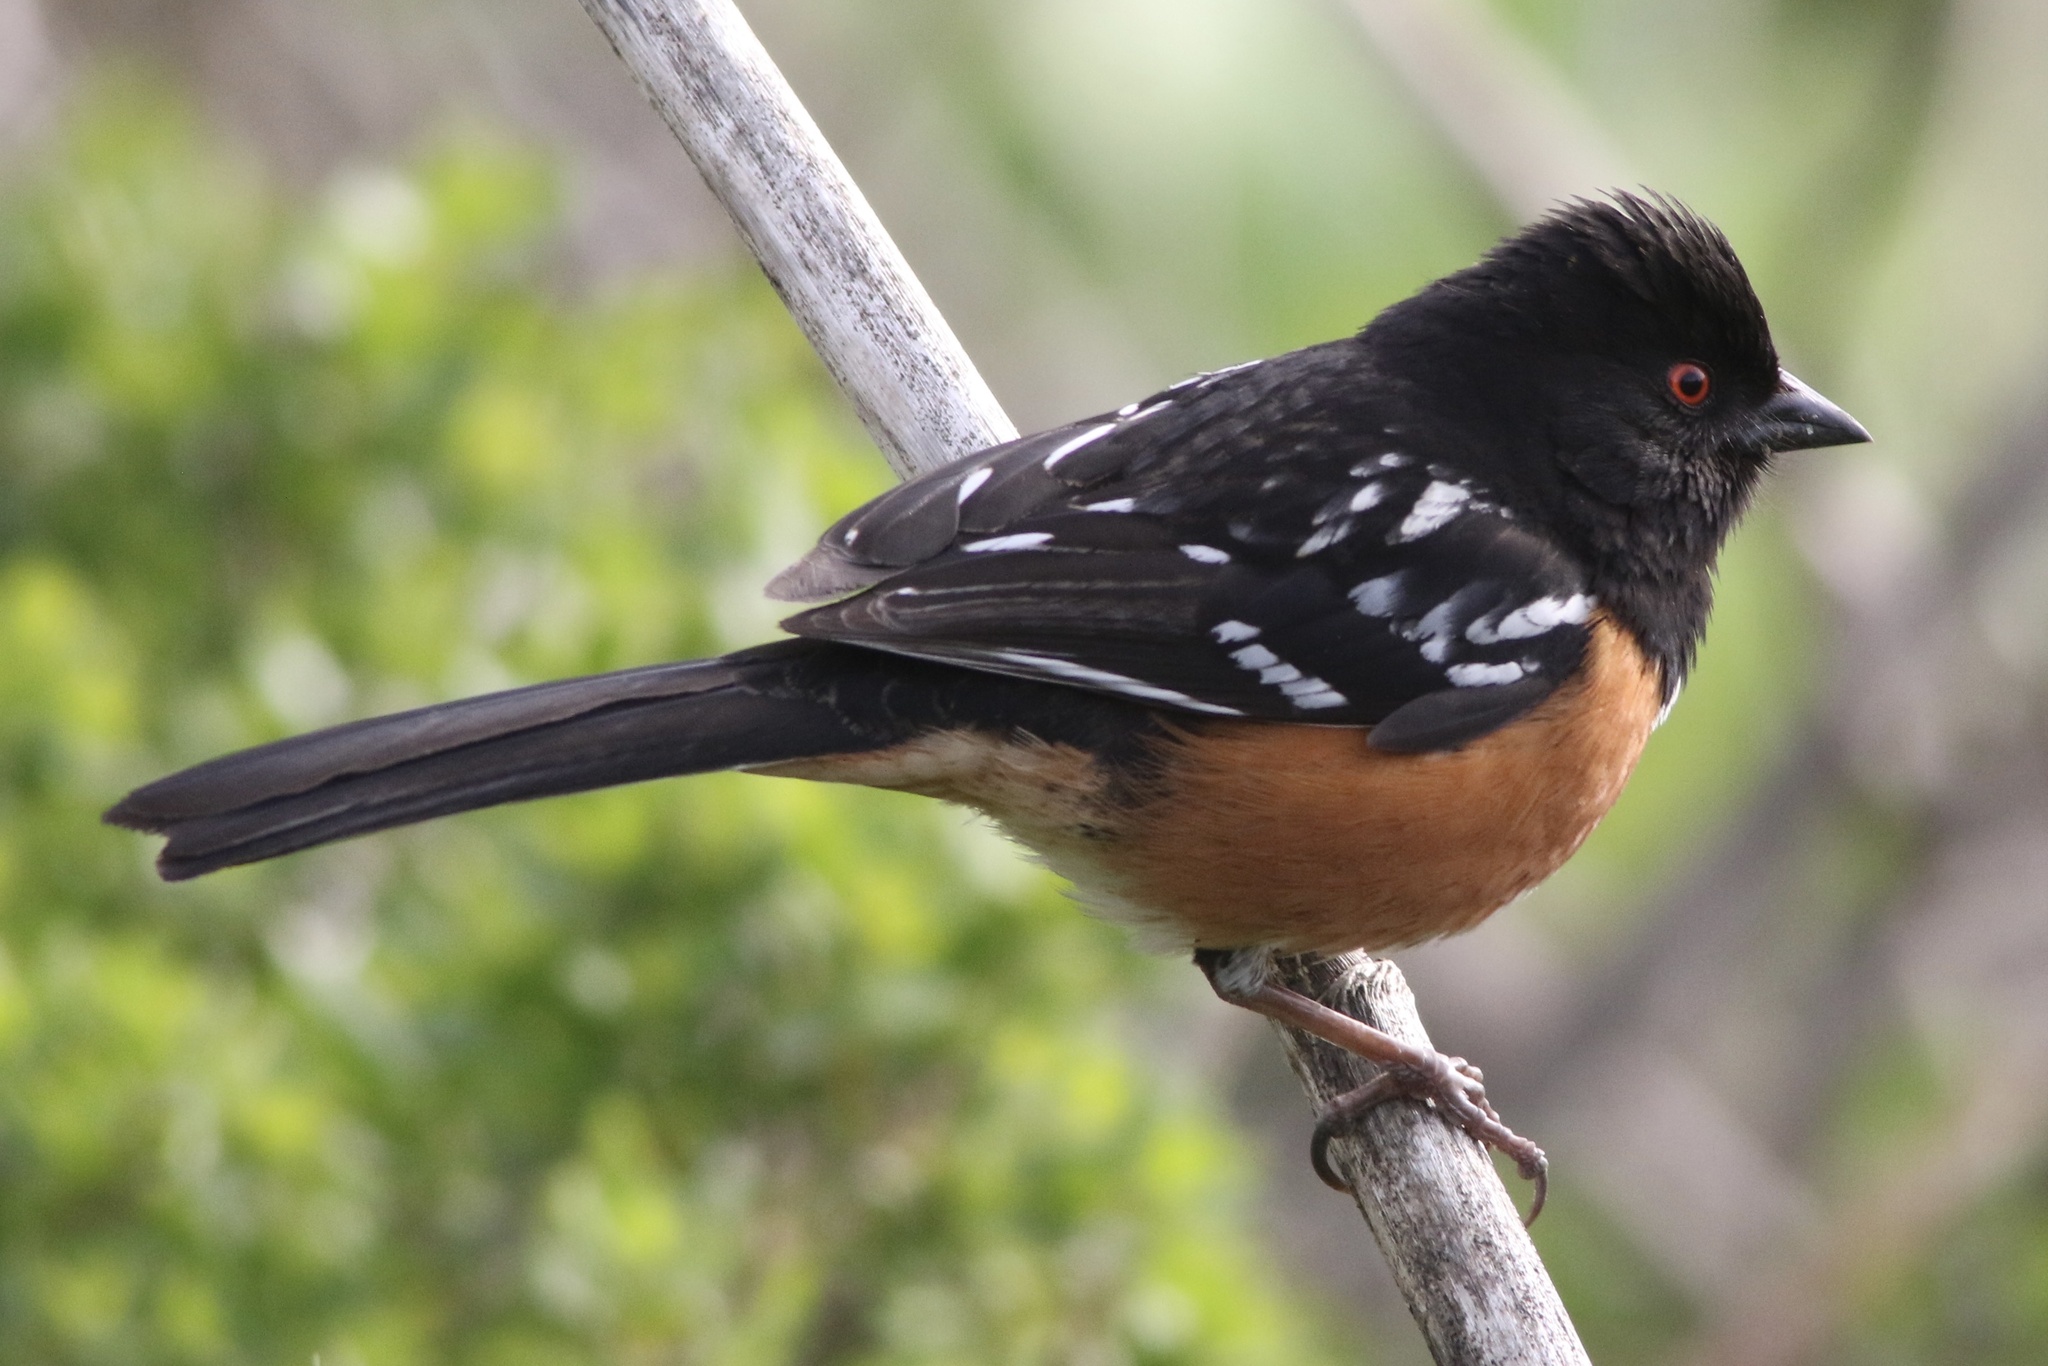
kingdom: Animalia
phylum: Chordata
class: Aves
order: Passeriformes
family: Passerellidae
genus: Pipilo
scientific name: Pipilo maculatus
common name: Spotted towhee
